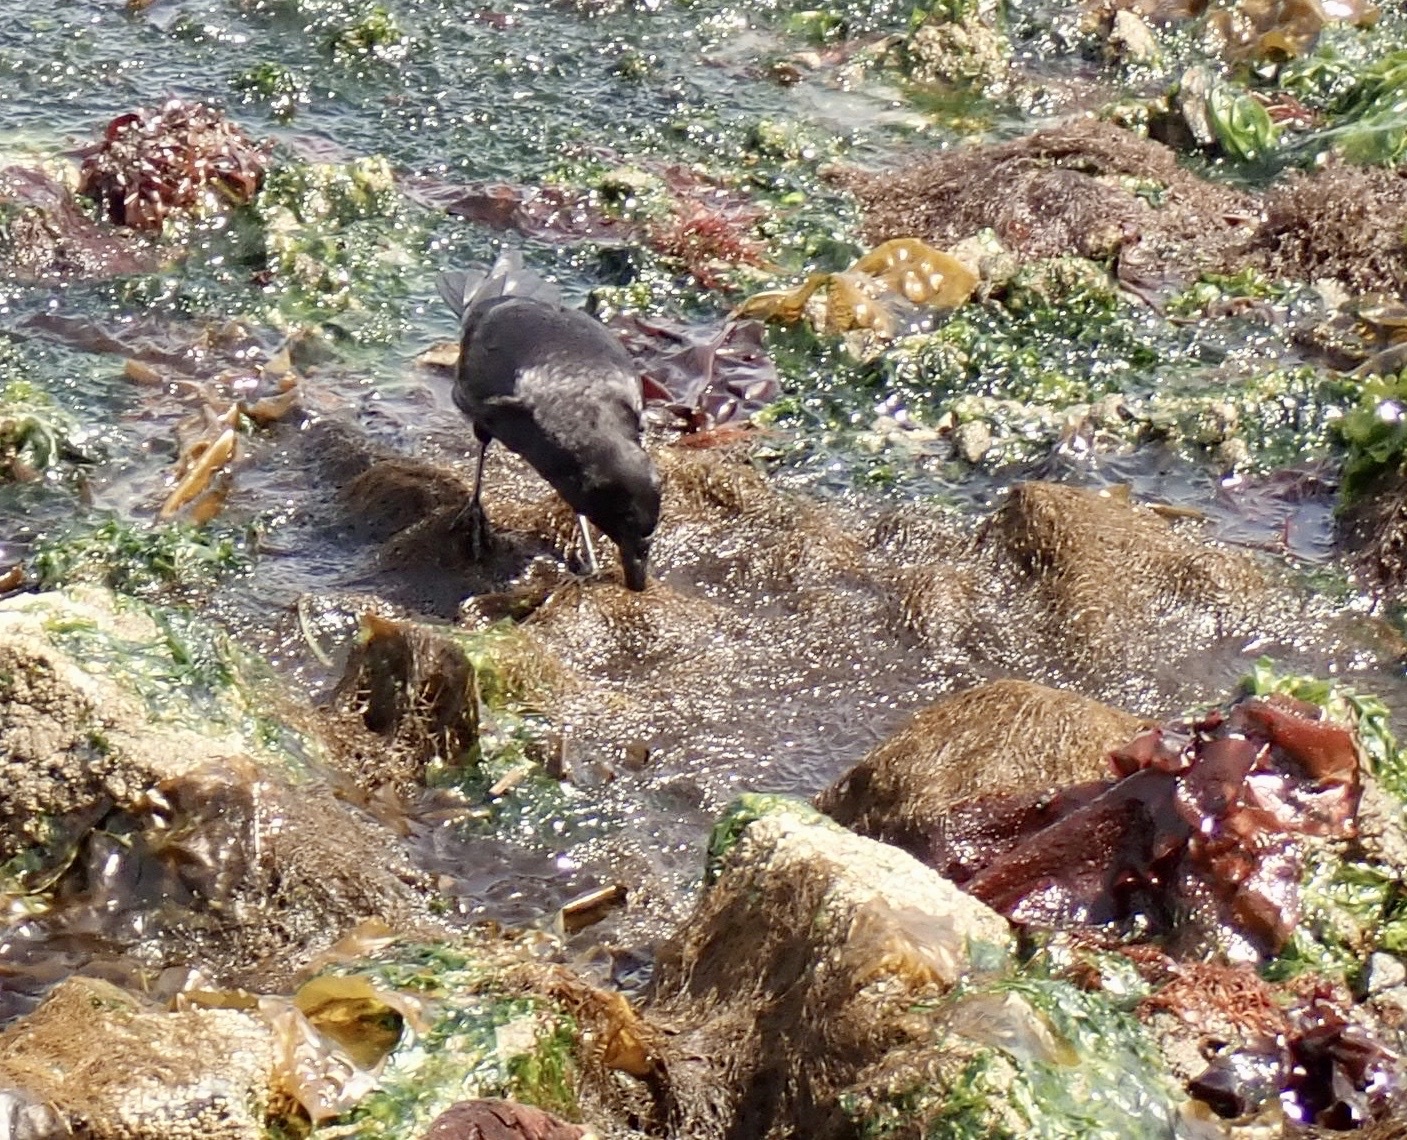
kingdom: Animalia
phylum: Chordata
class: Aves
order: Passeriformes
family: Corvidae
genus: Corvus
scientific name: Corvus brachyrhynchos
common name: American crow
